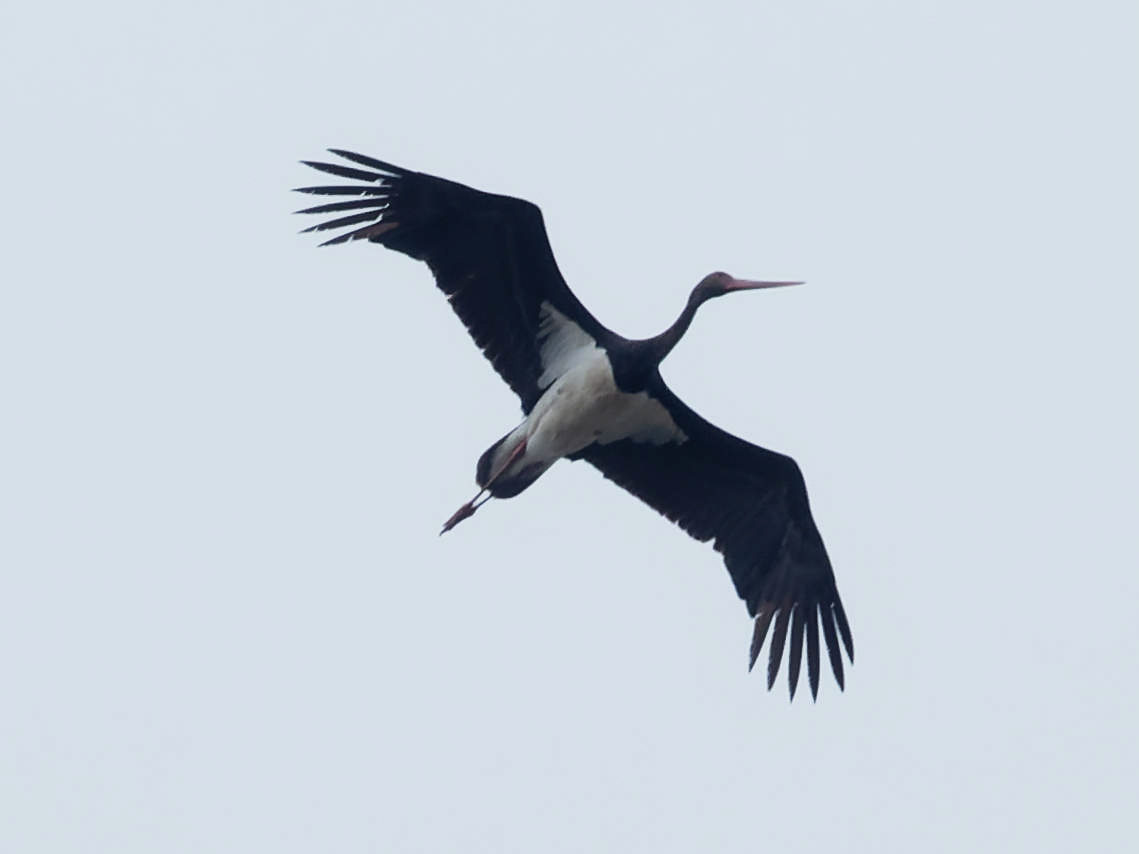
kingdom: Animalia
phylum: Chordata
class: Aves
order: Ciconiiformes
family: Ciconiidae
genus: Ciconia
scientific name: Ciconia nigra
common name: Black stork
